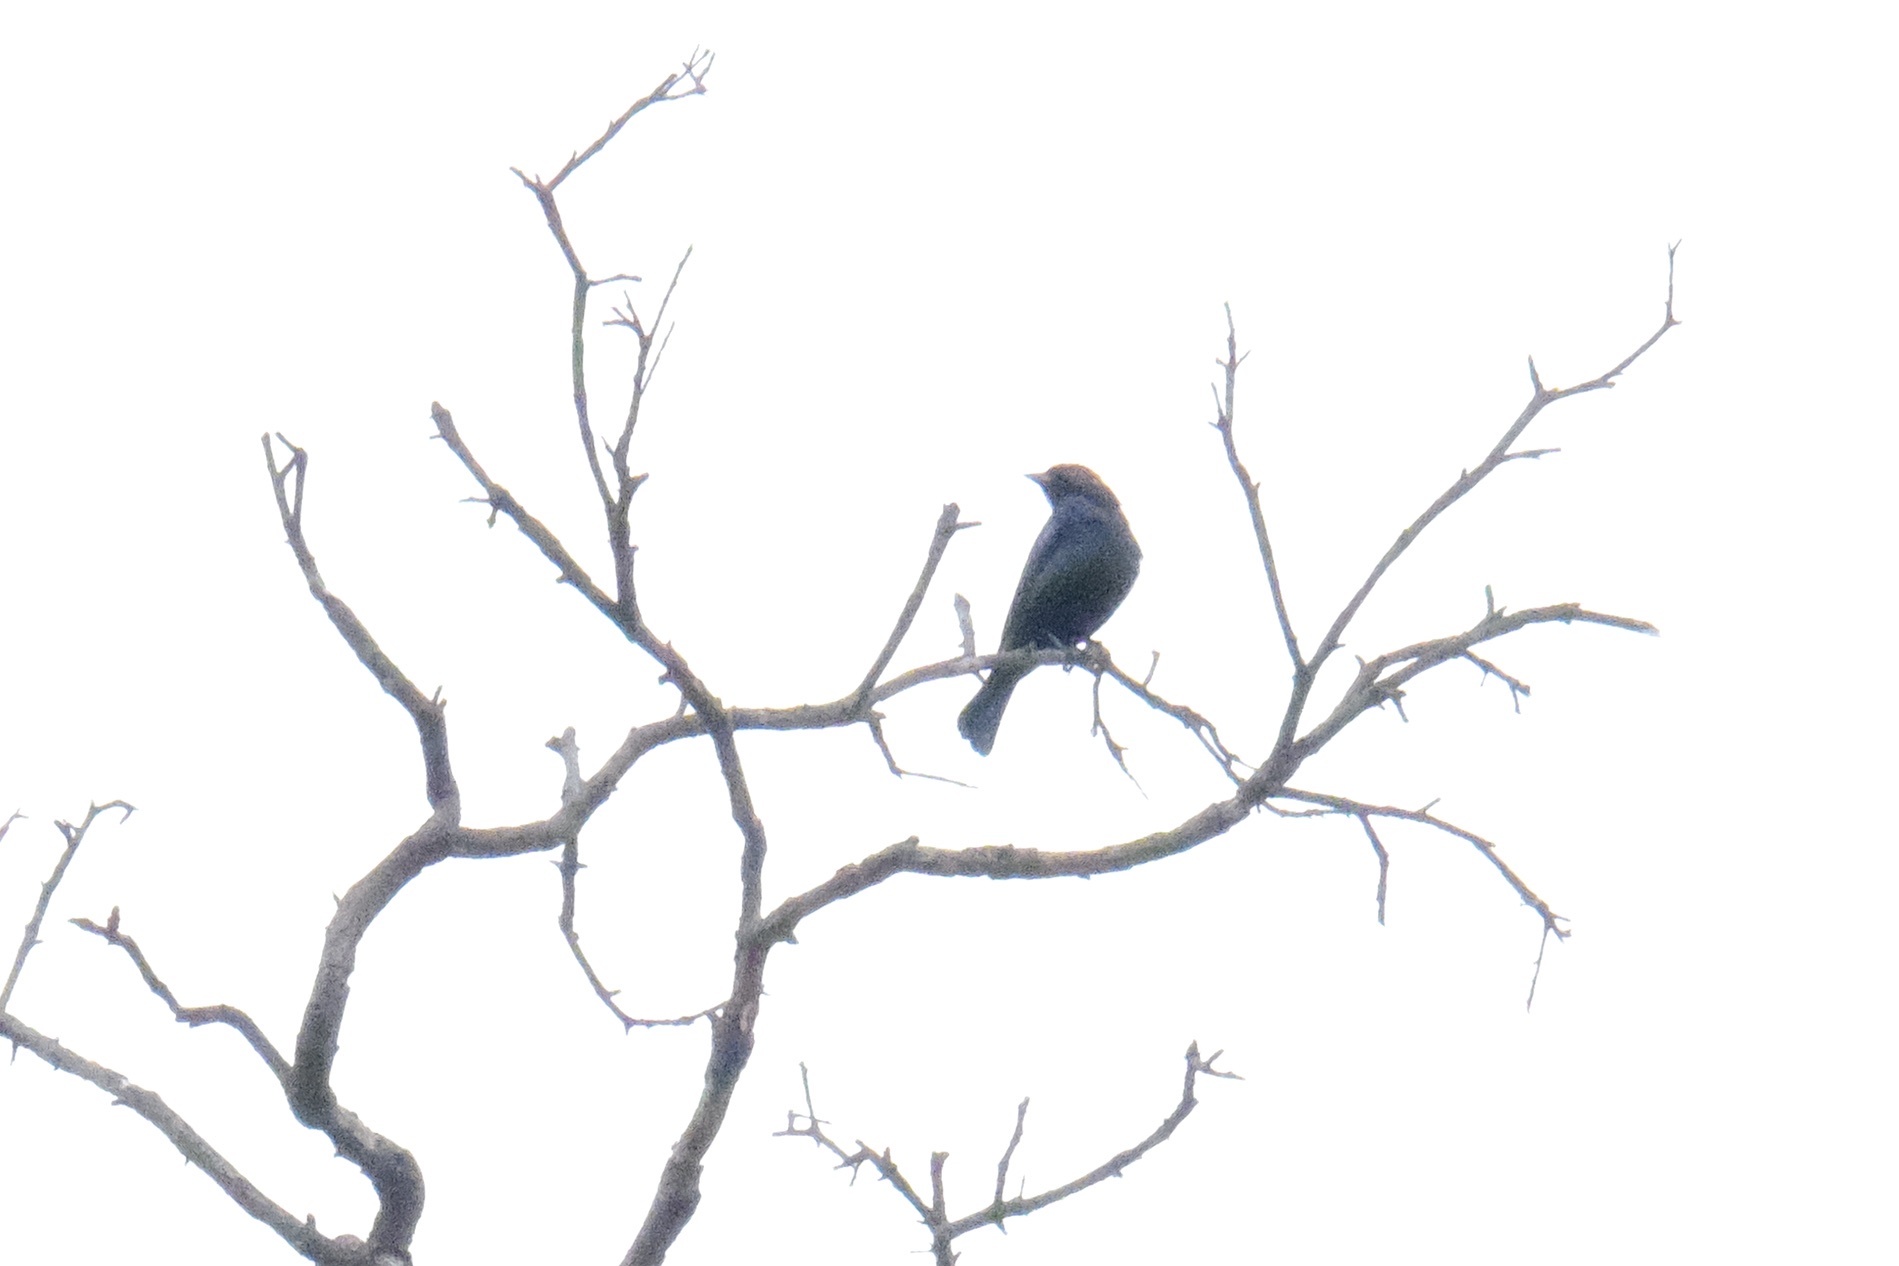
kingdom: Animalia
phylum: Chordata
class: Aves
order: Passeriformes
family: Icteridae
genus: Molothrus
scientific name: Molothrus ater
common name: Brown-headed cowbird
